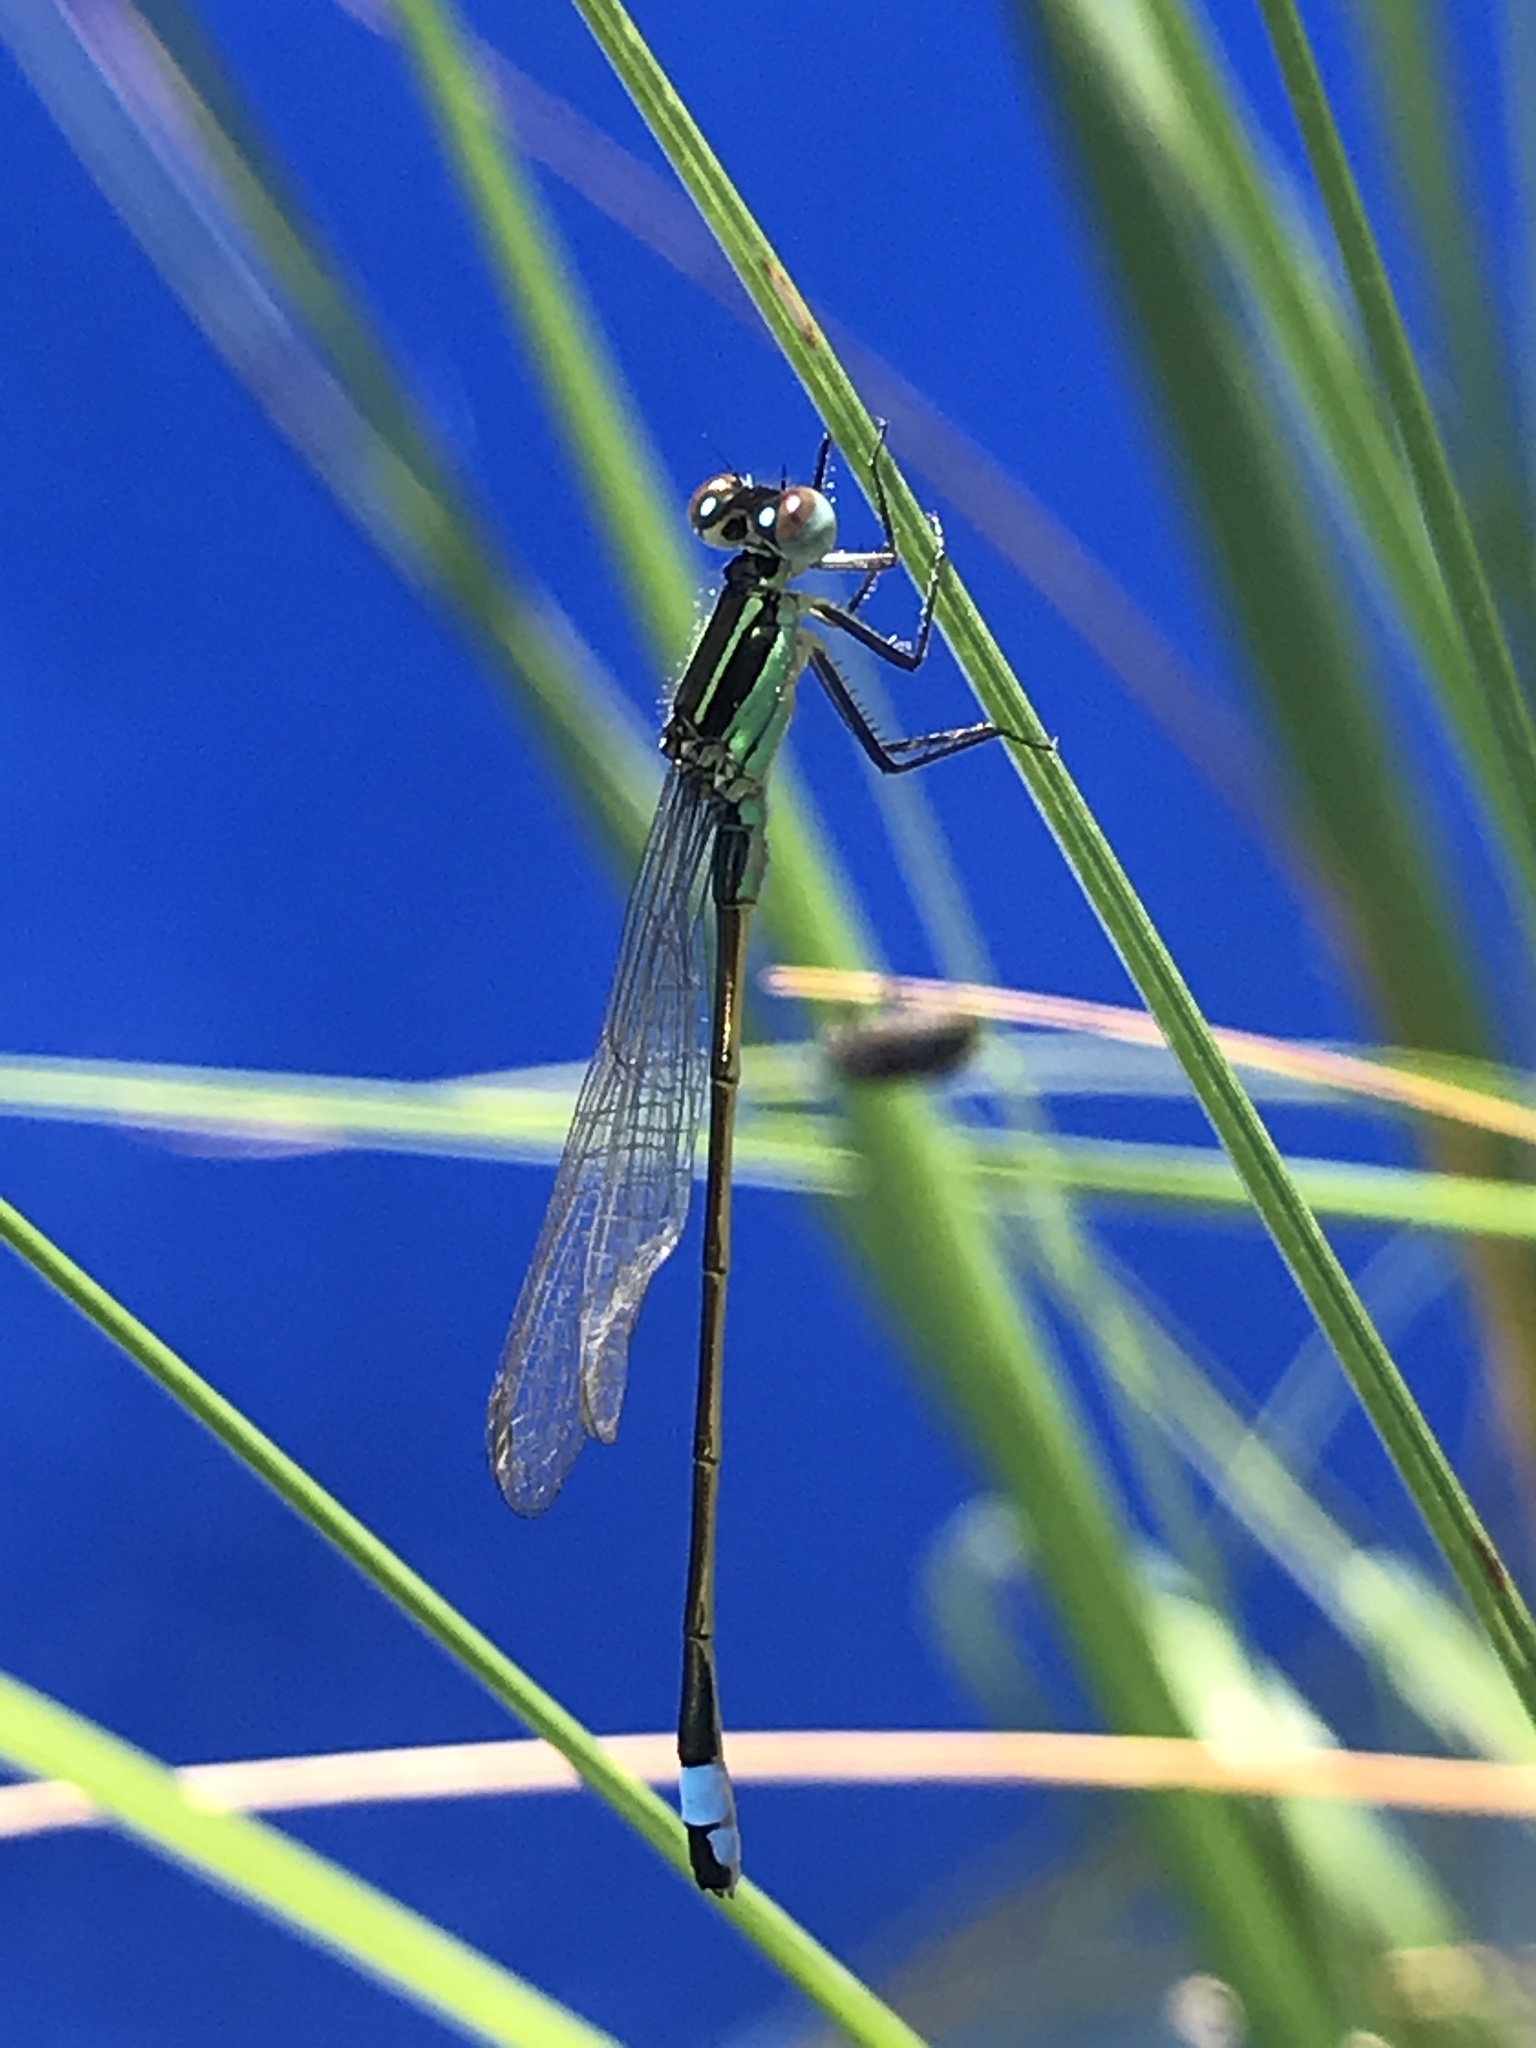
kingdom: Animalia
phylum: Arthropoda
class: Insecta
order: Odonata
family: Coenagrionidae
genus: Ischnura
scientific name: Ischnura ramburii
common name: Rambur's forktail
